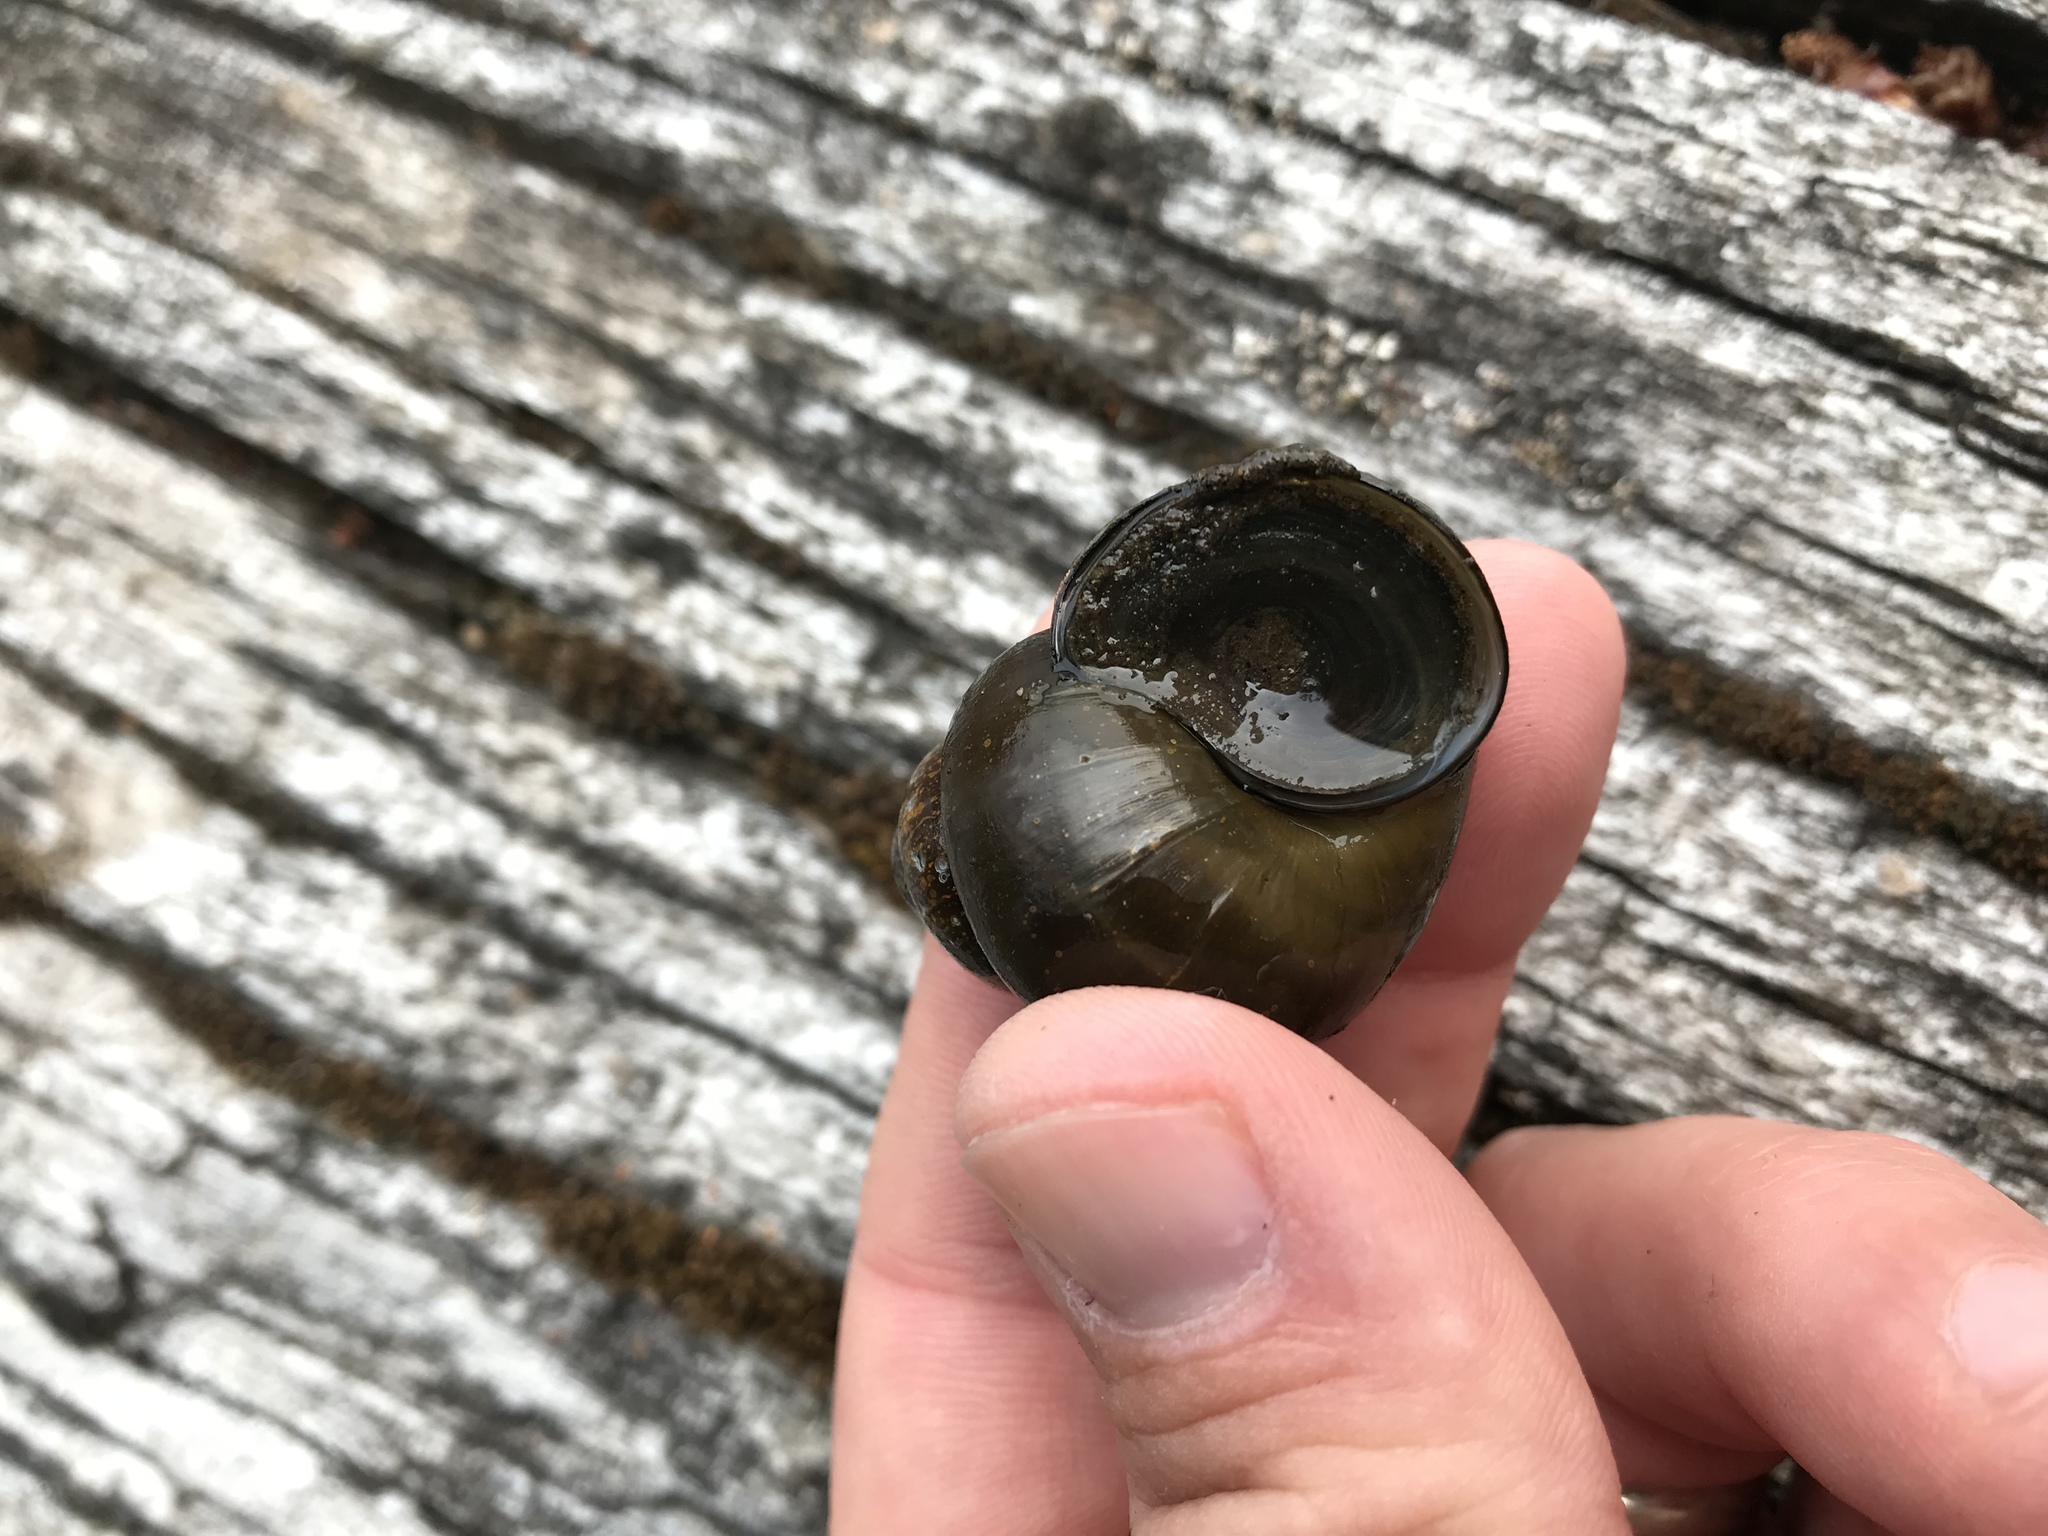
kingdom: Animalia
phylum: Mollusca
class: Gastropoda
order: Architaenioglossa
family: Viviparidae
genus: Cipangopaludina
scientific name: Cipangopaludina chinensis
